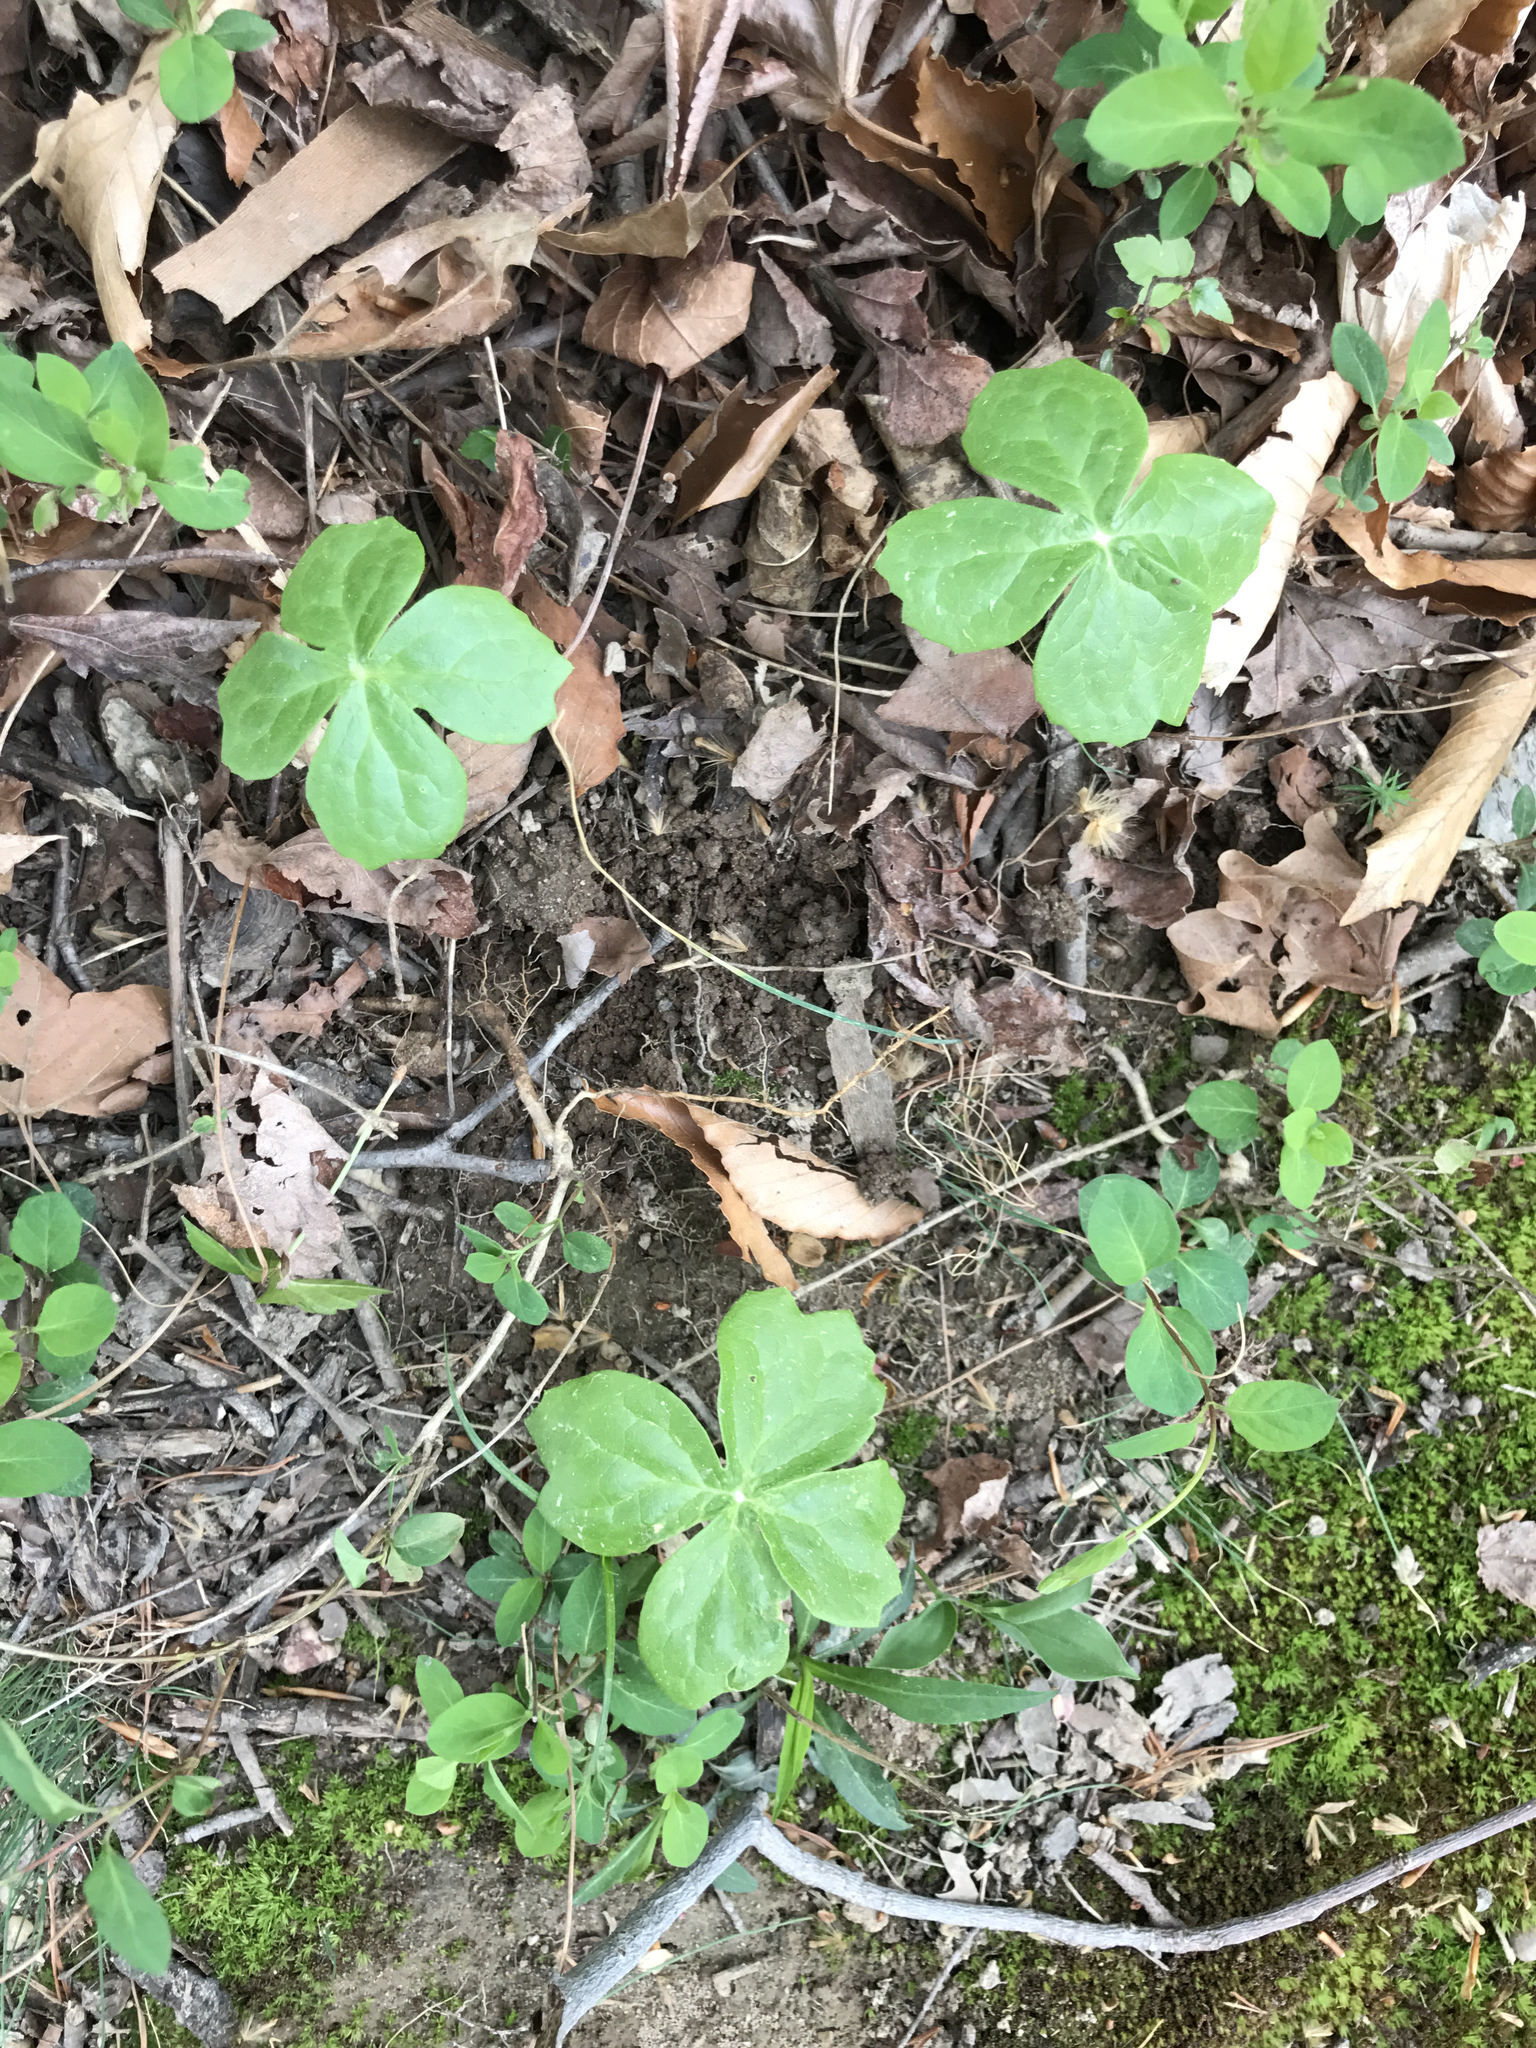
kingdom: Plantae
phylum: Tracheophyta
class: Magnoliopsida
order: Ranunculales
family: Berberidaceae
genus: Podophyllum
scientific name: Podophyllum peltatum
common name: Wild mandrake
